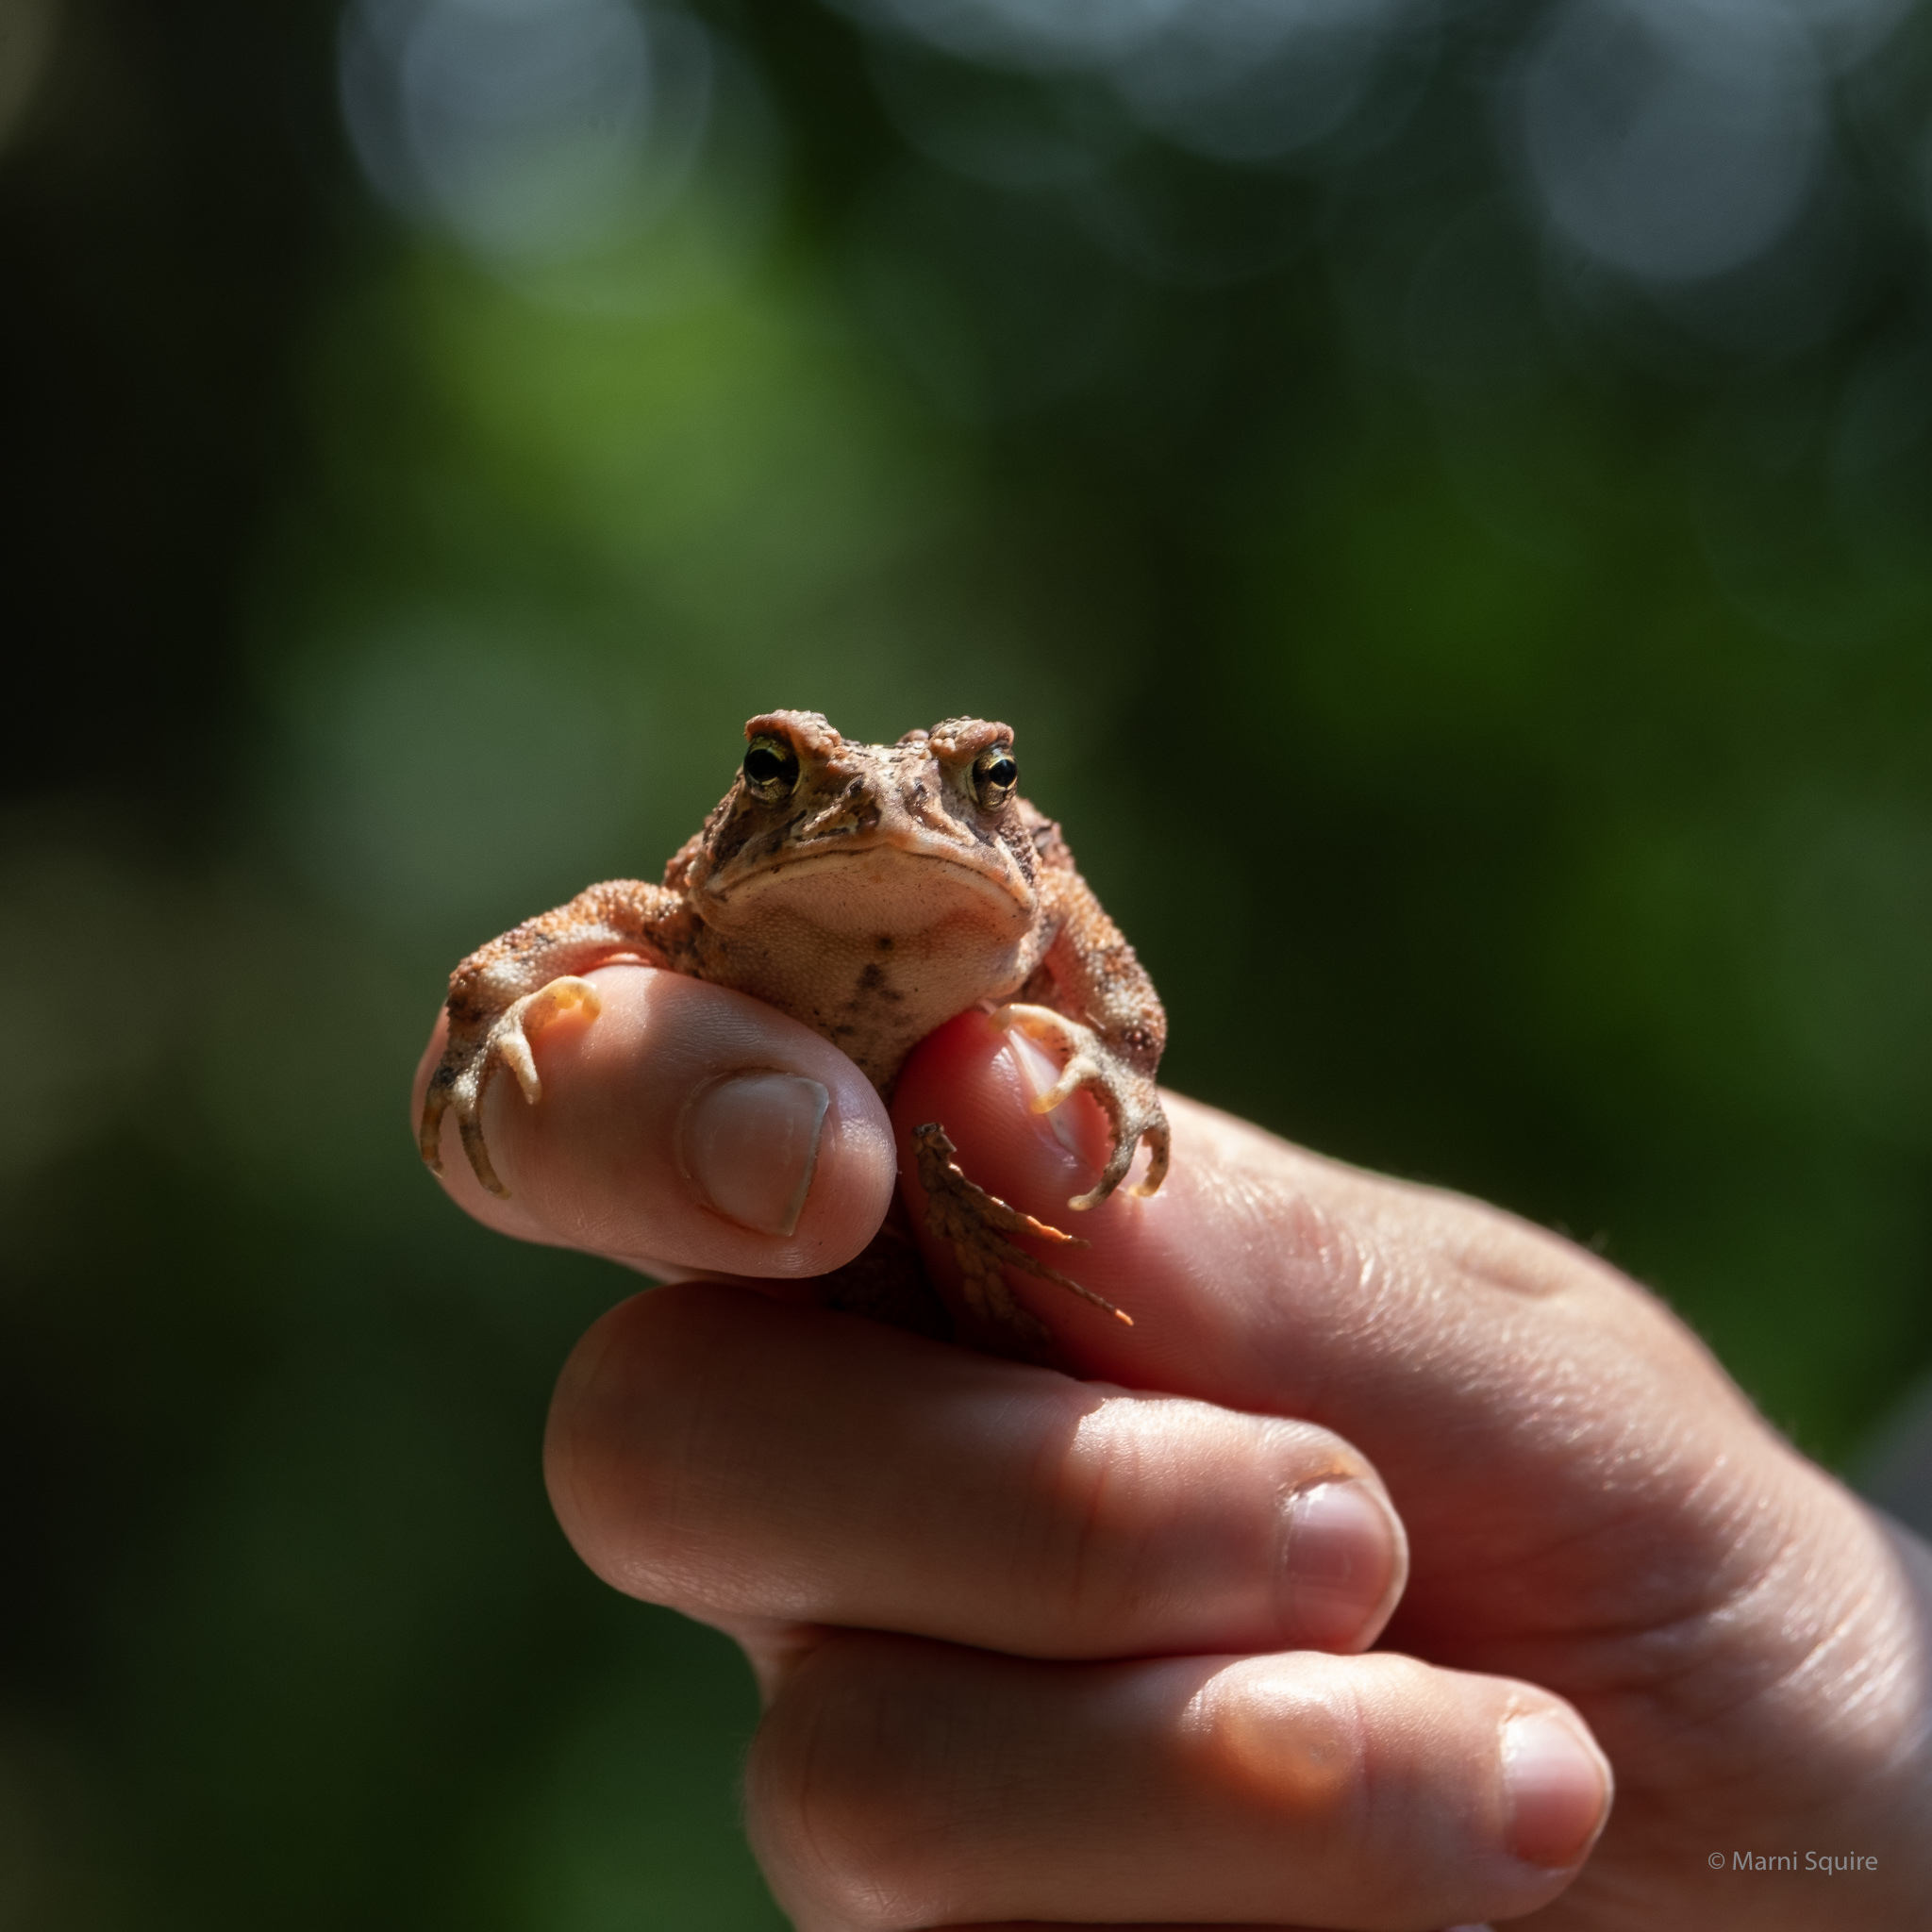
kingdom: Animalia
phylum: Chordata
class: Amphibia
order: Anura
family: Bufonidae
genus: Anaxyrus
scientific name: Anaxyrus americanus
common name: American toad
